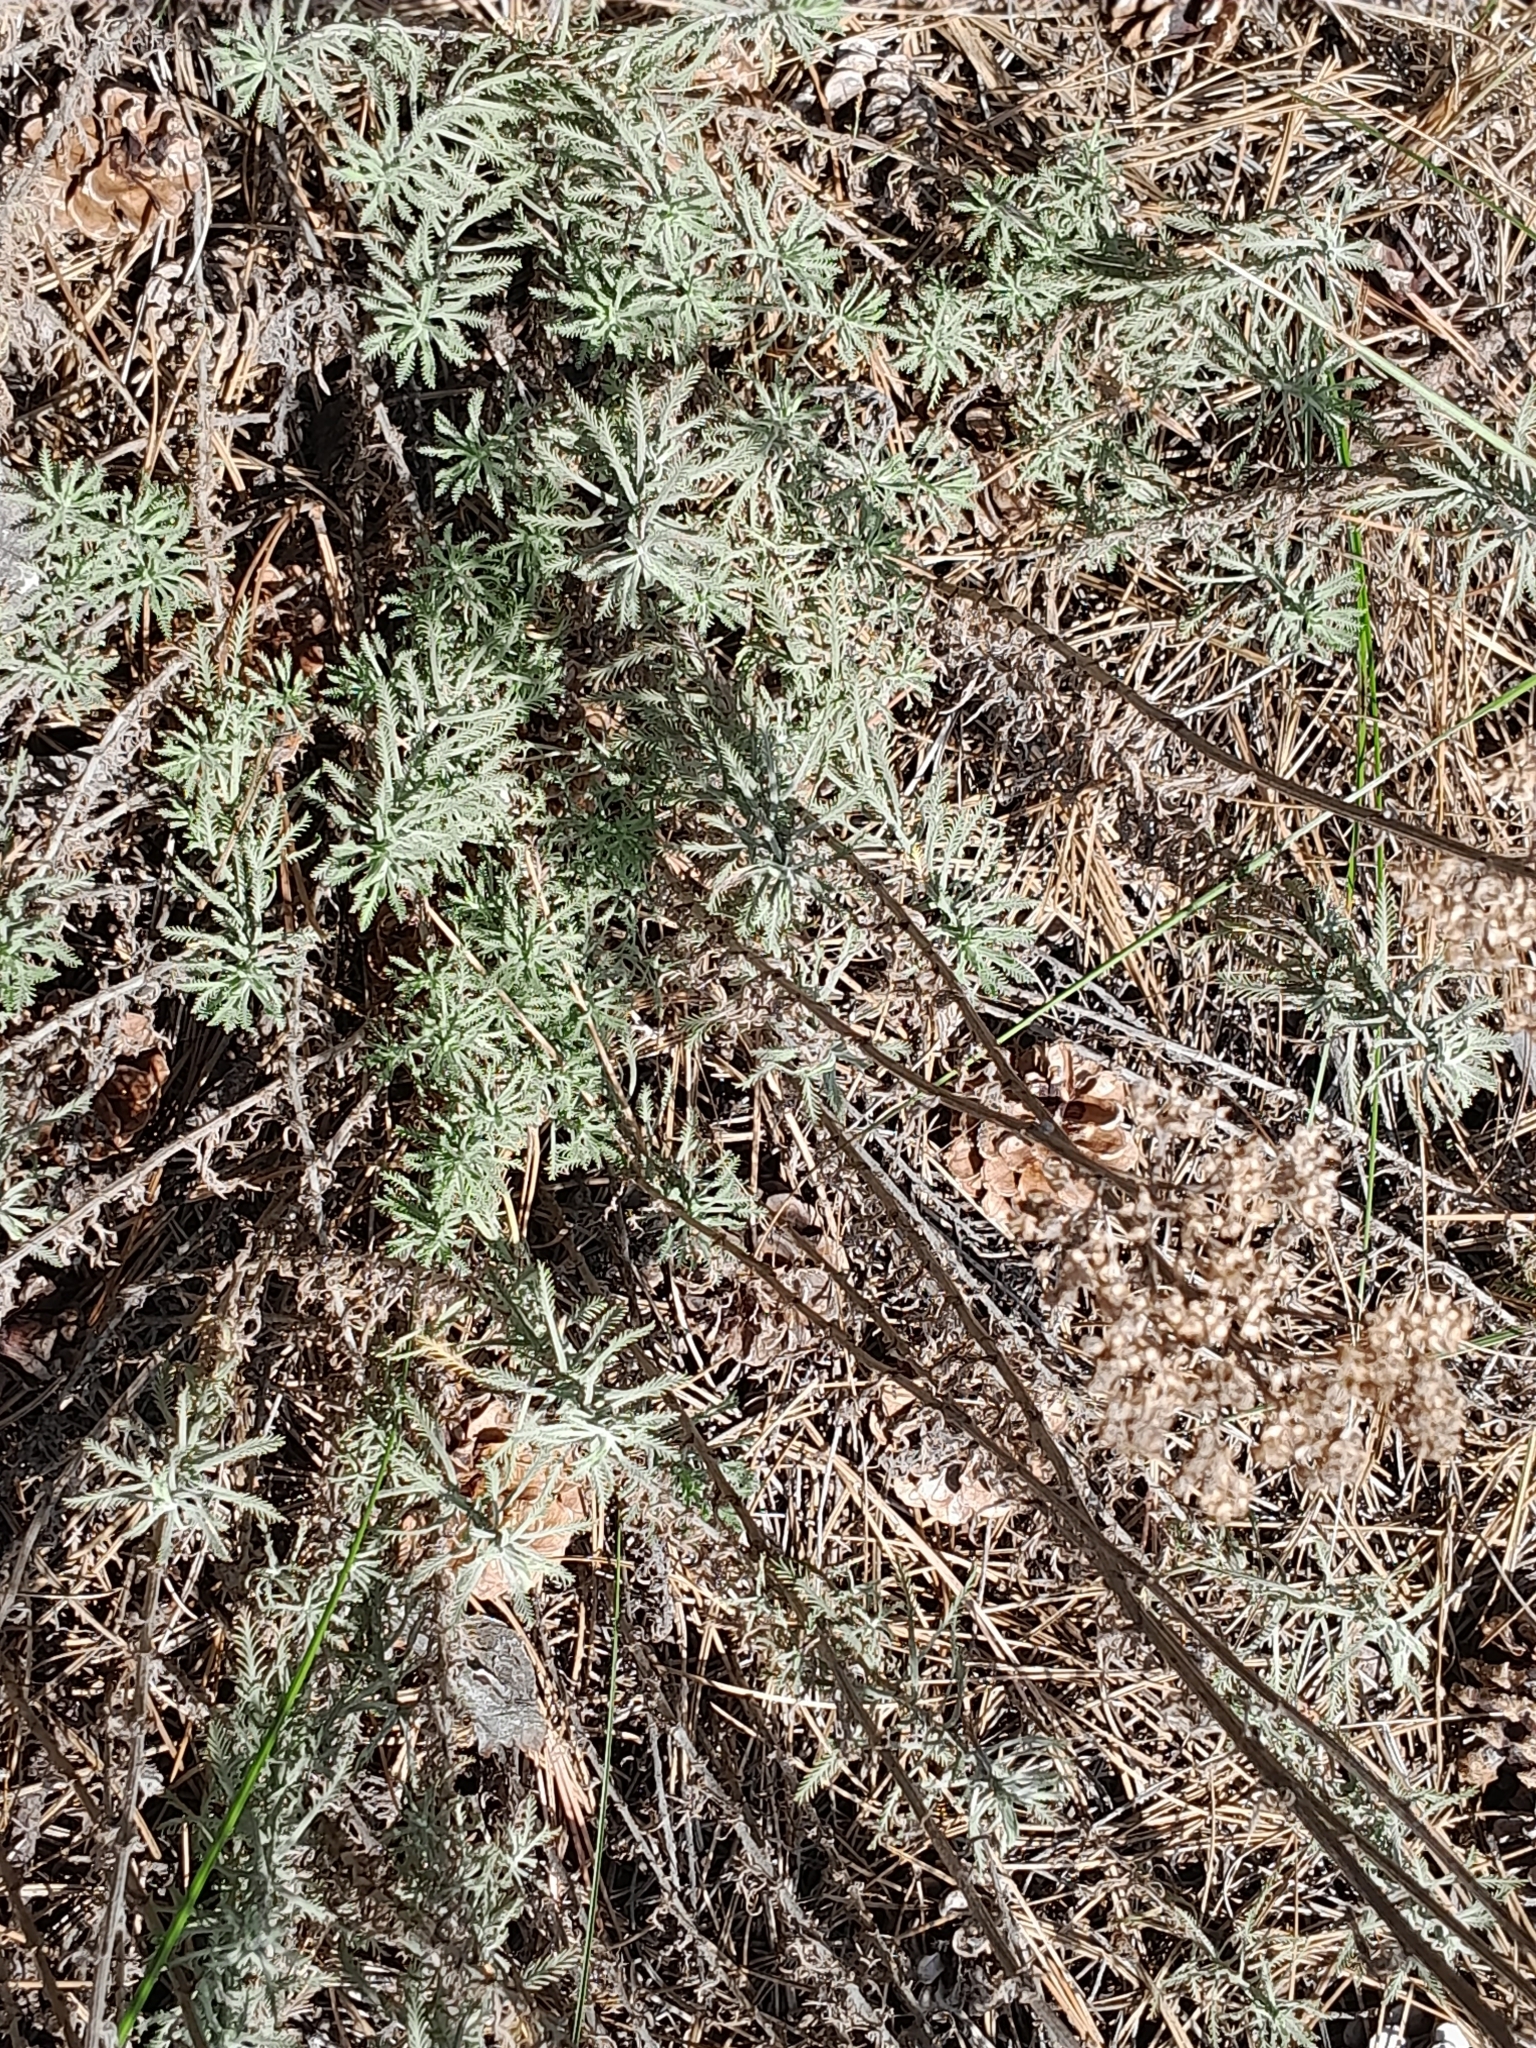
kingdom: Plantae
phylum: Tracheophyta
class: Magnoliopsida
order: Asterales
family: Asteraceae
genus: Achillea
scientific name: Achillea ochroleuca
